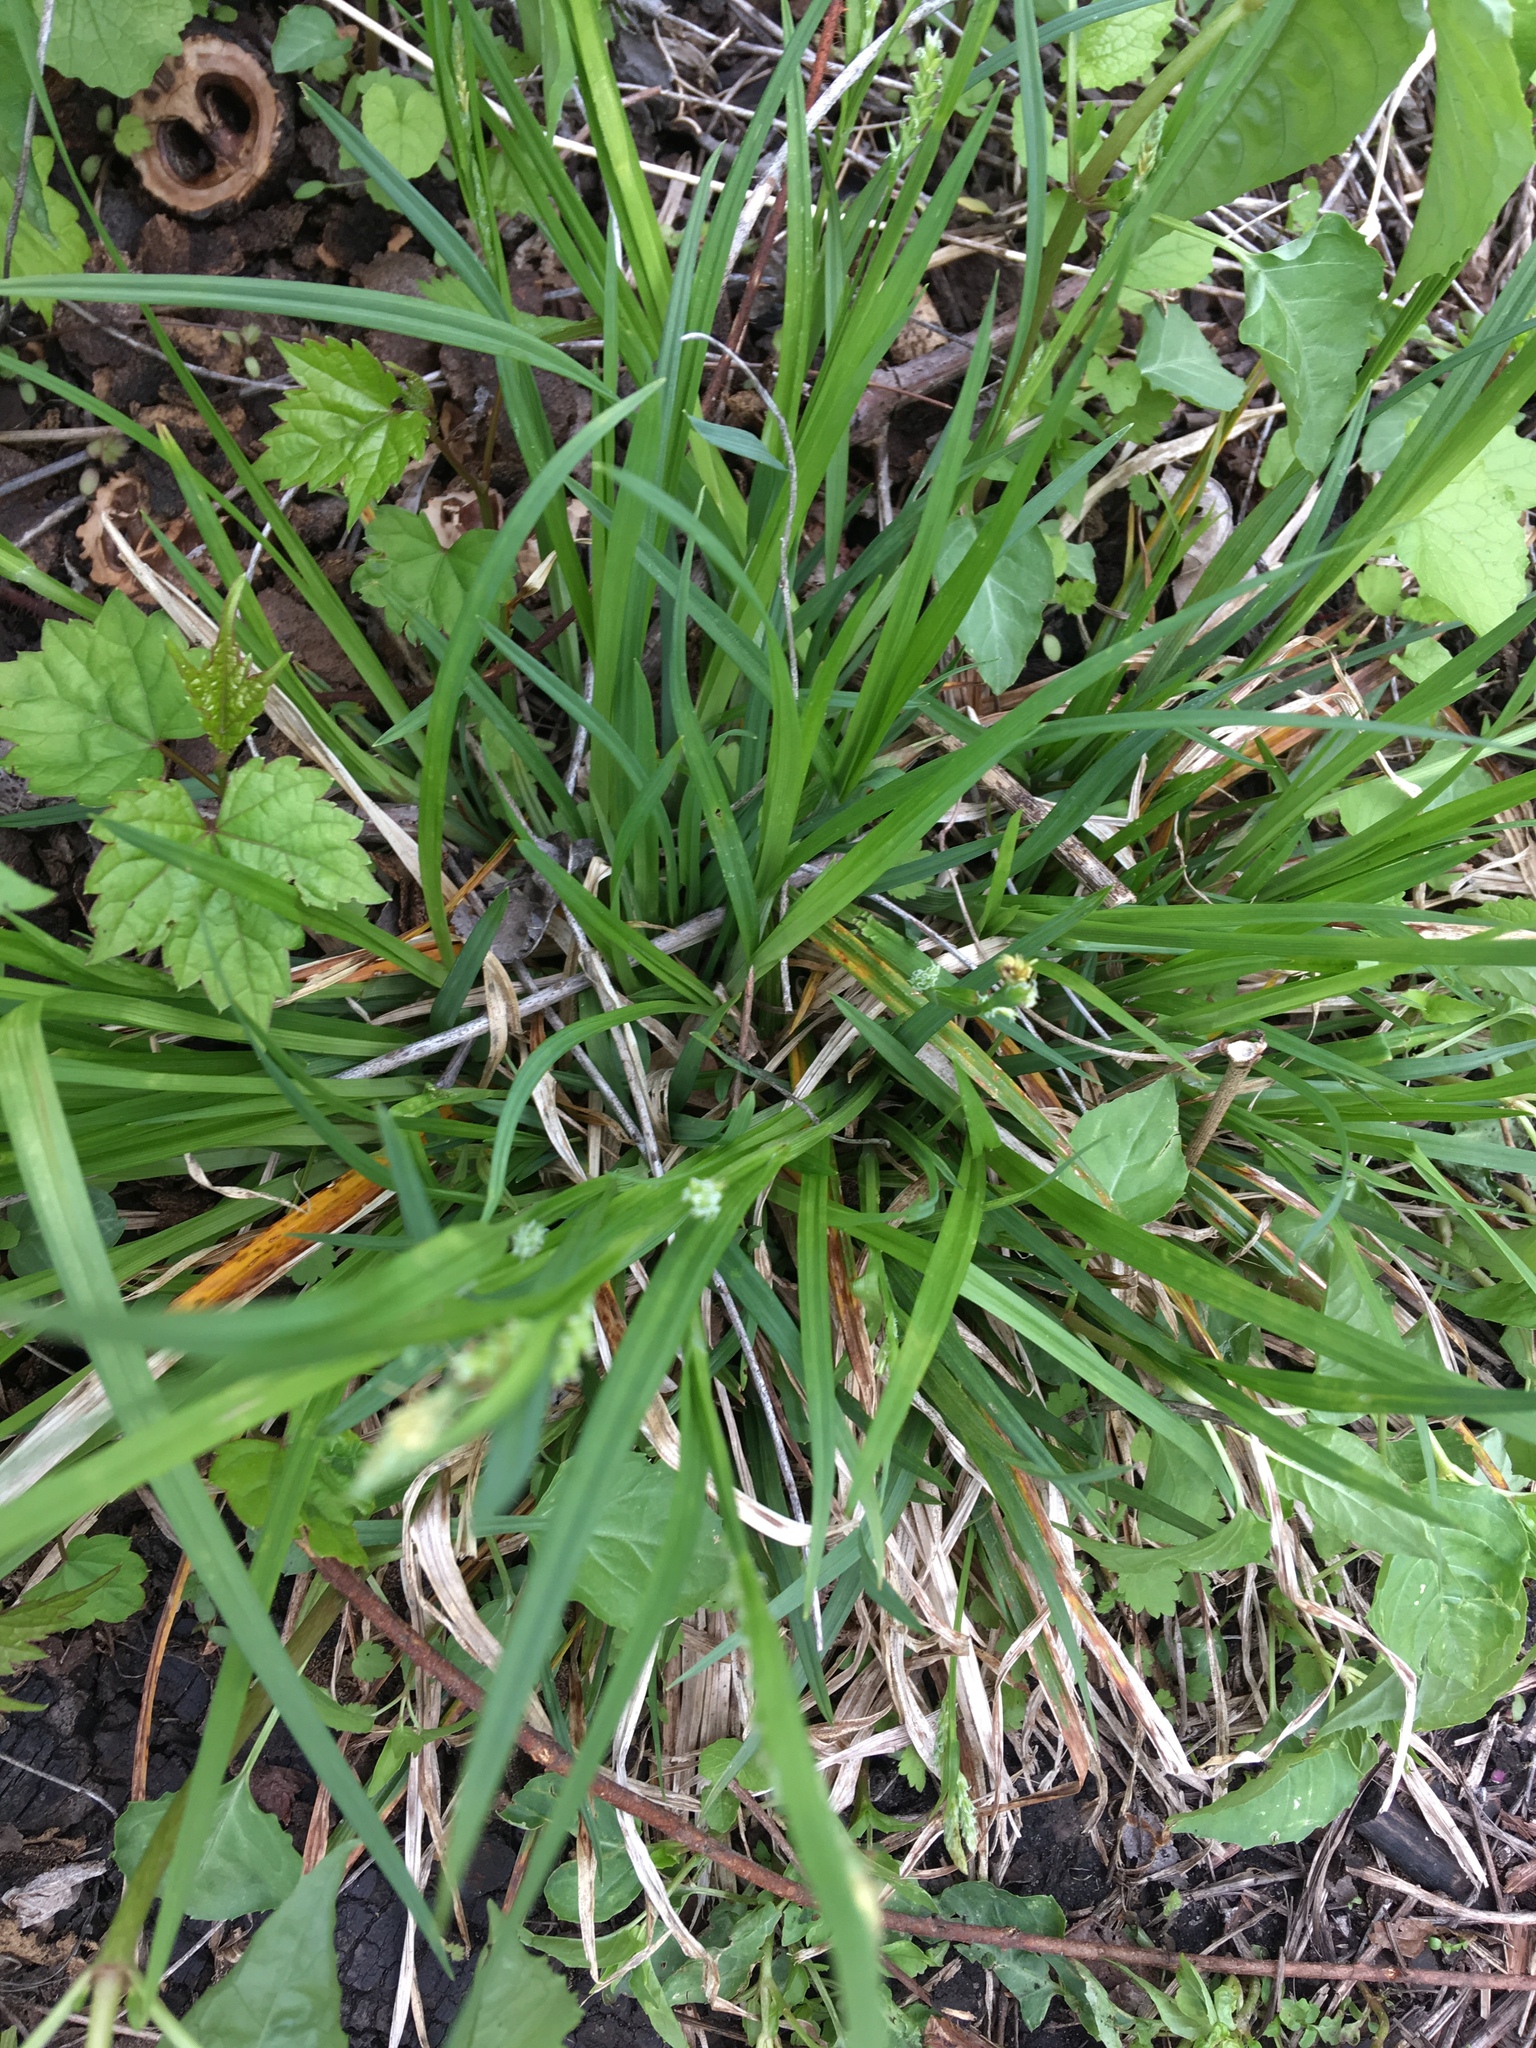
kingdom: Plantae
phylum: Tracheophyta
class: Liliopsida
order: Poales
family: Cyperaceae
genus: Carex
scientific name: Carex blanda
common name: Bland sedge
